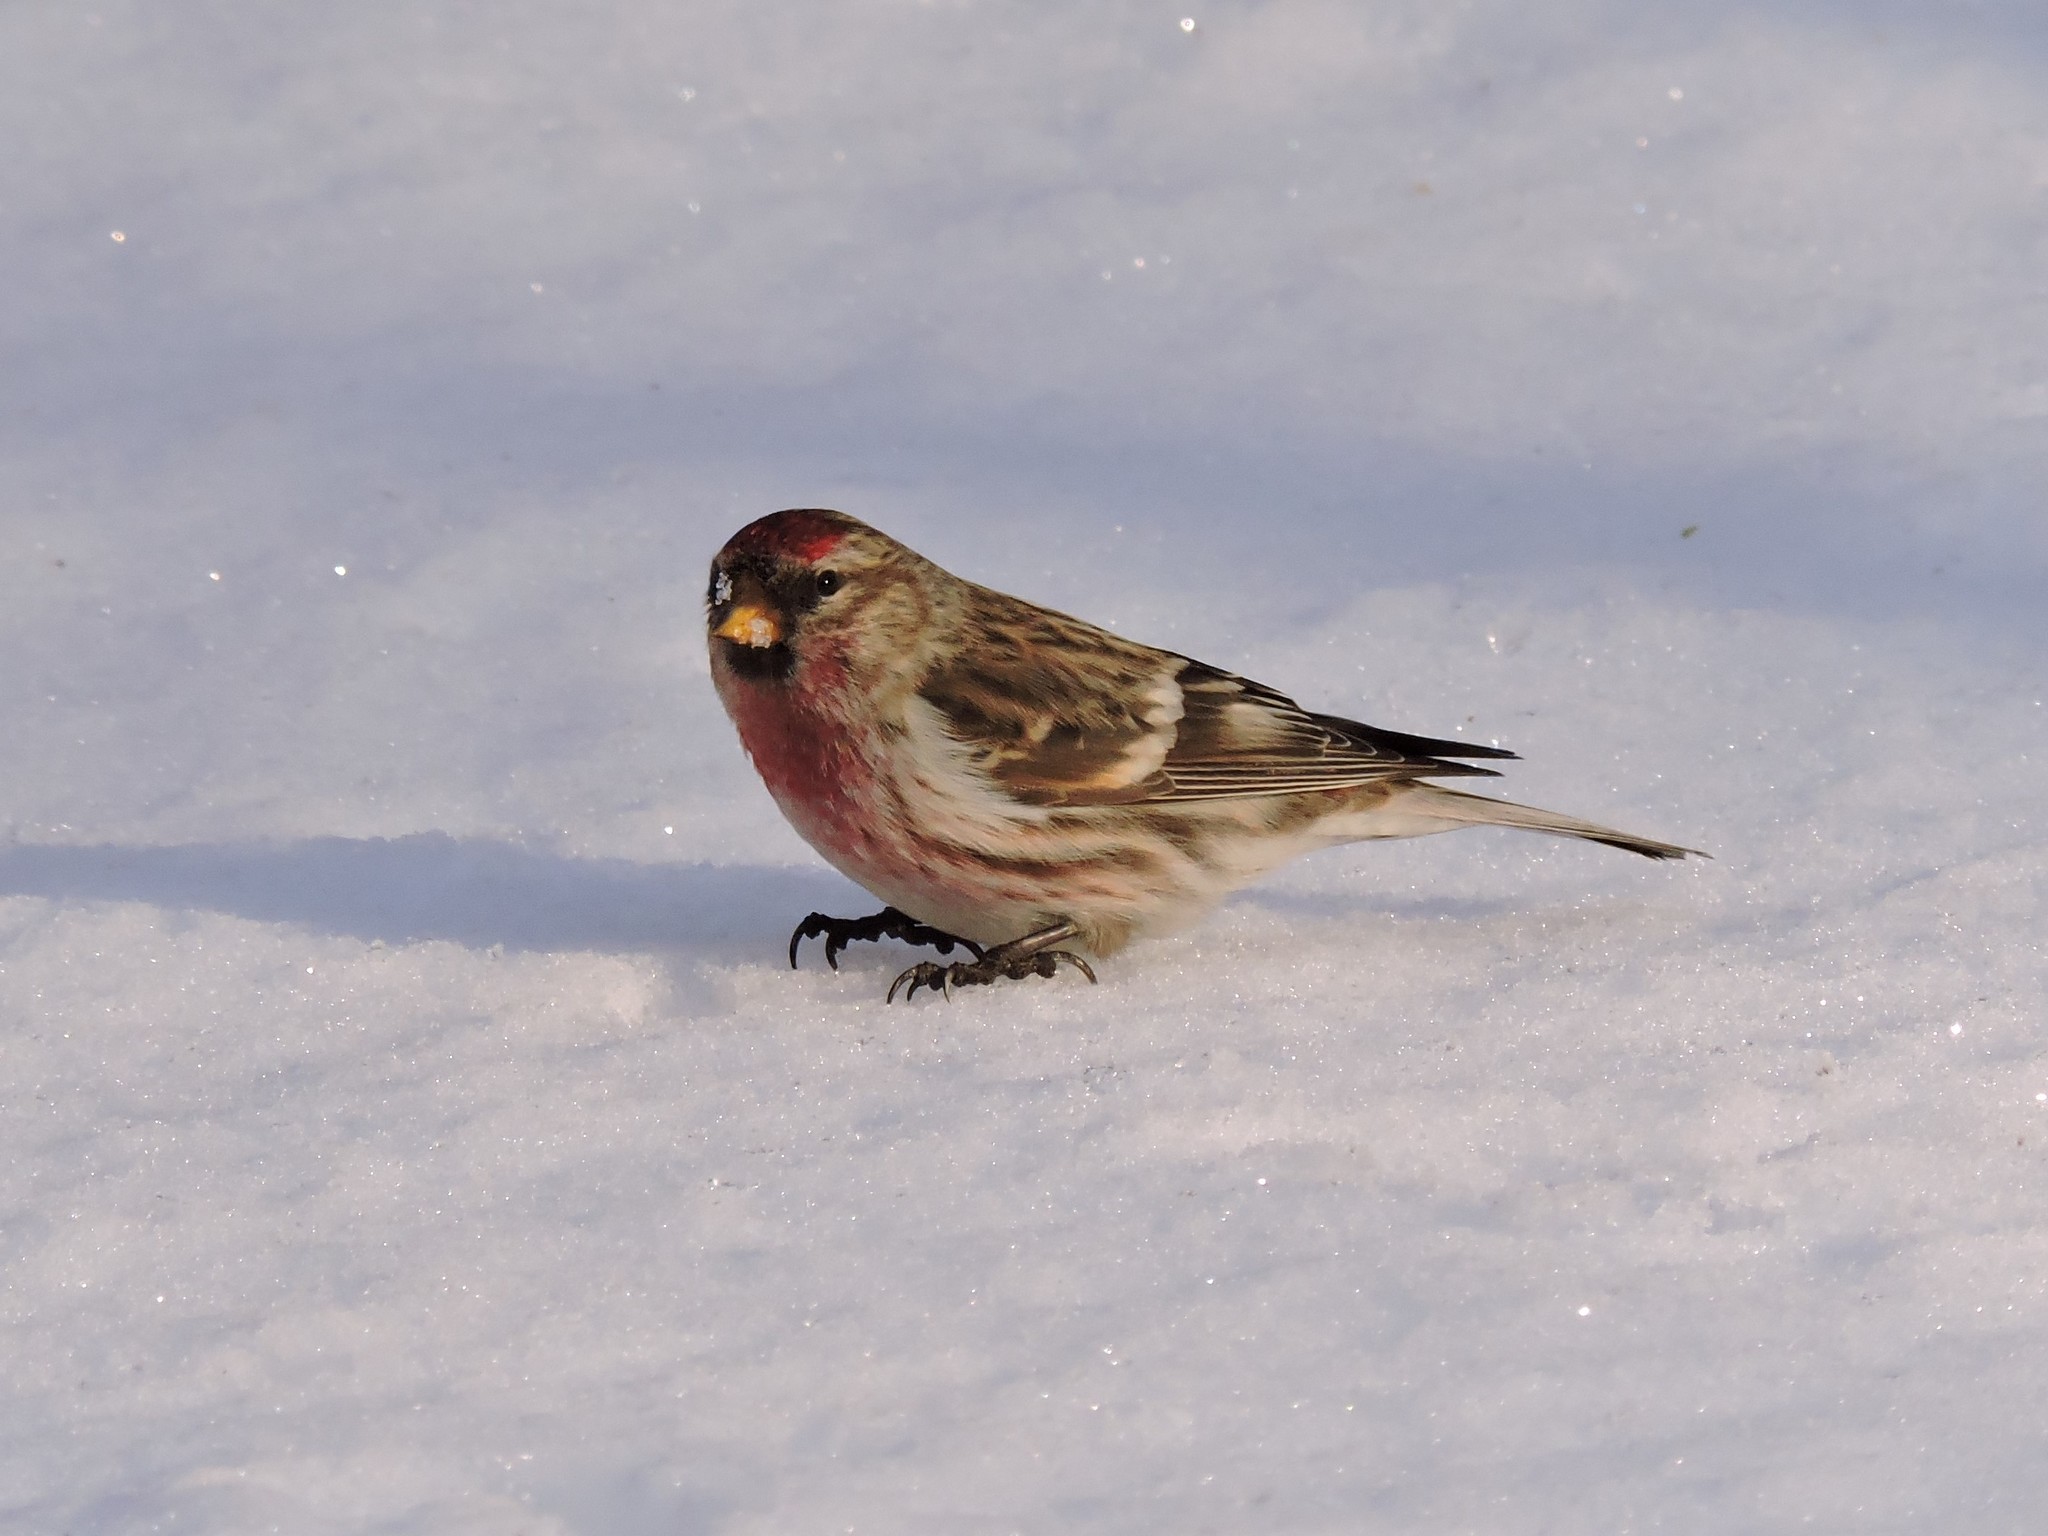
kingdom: Animalia
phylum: Chordata
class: Aves
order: Passeriformes
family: Fringillidae
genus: Acanthis
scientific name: Acanthis flammea
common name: Common redpoll
